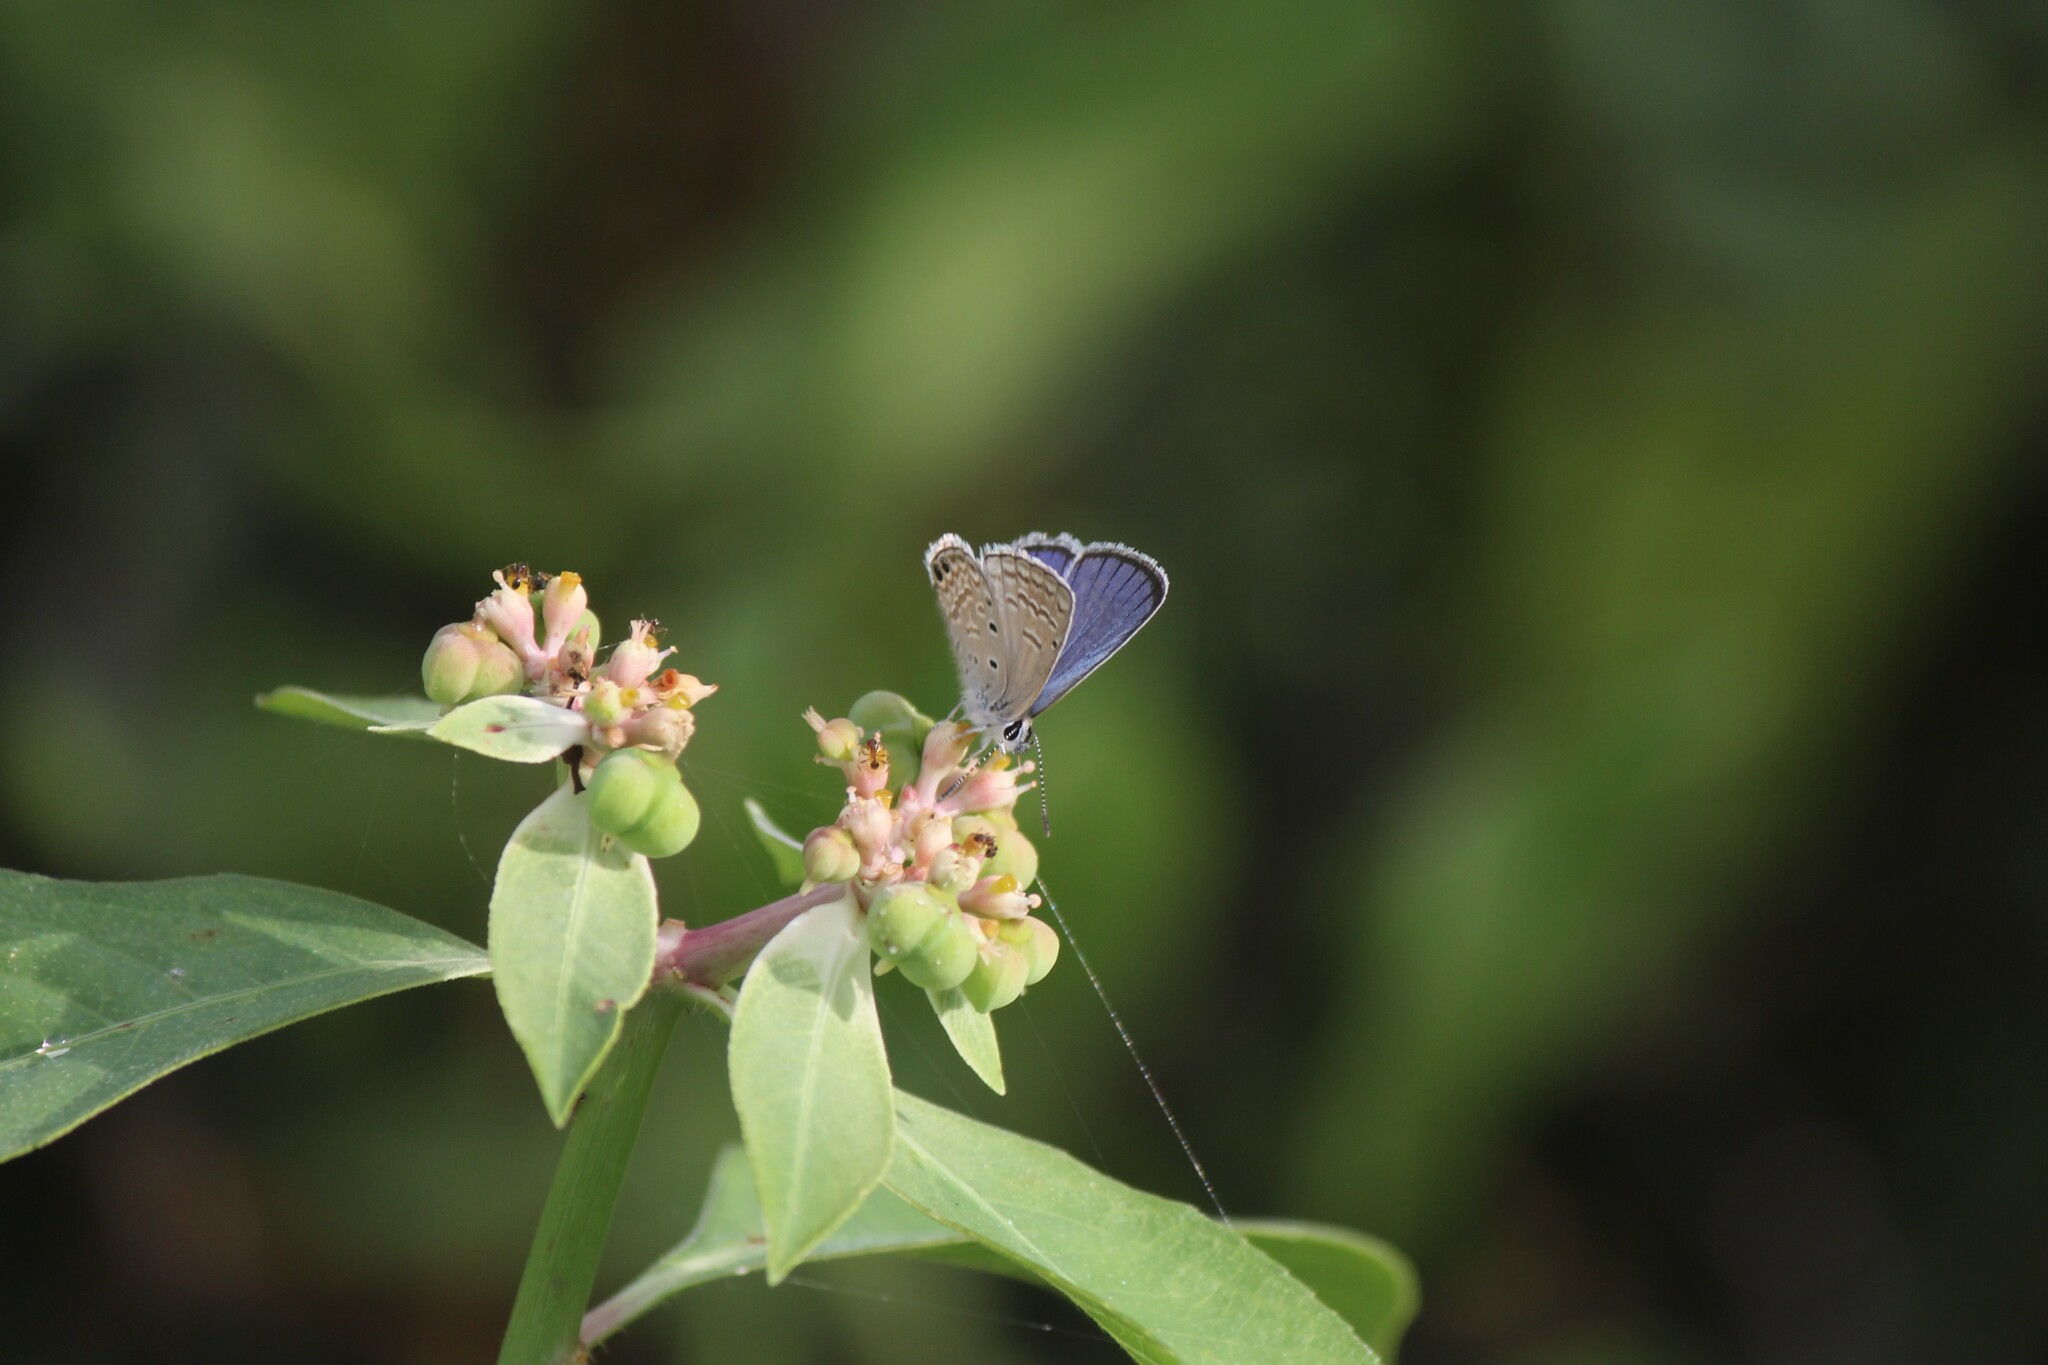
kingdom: Animalia
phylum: Arthropoda
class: Insecta
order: Lepidoptera
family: Lycaenidae
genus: Hemiargus
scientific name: Hemiargus ramon
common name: Ramon blue
